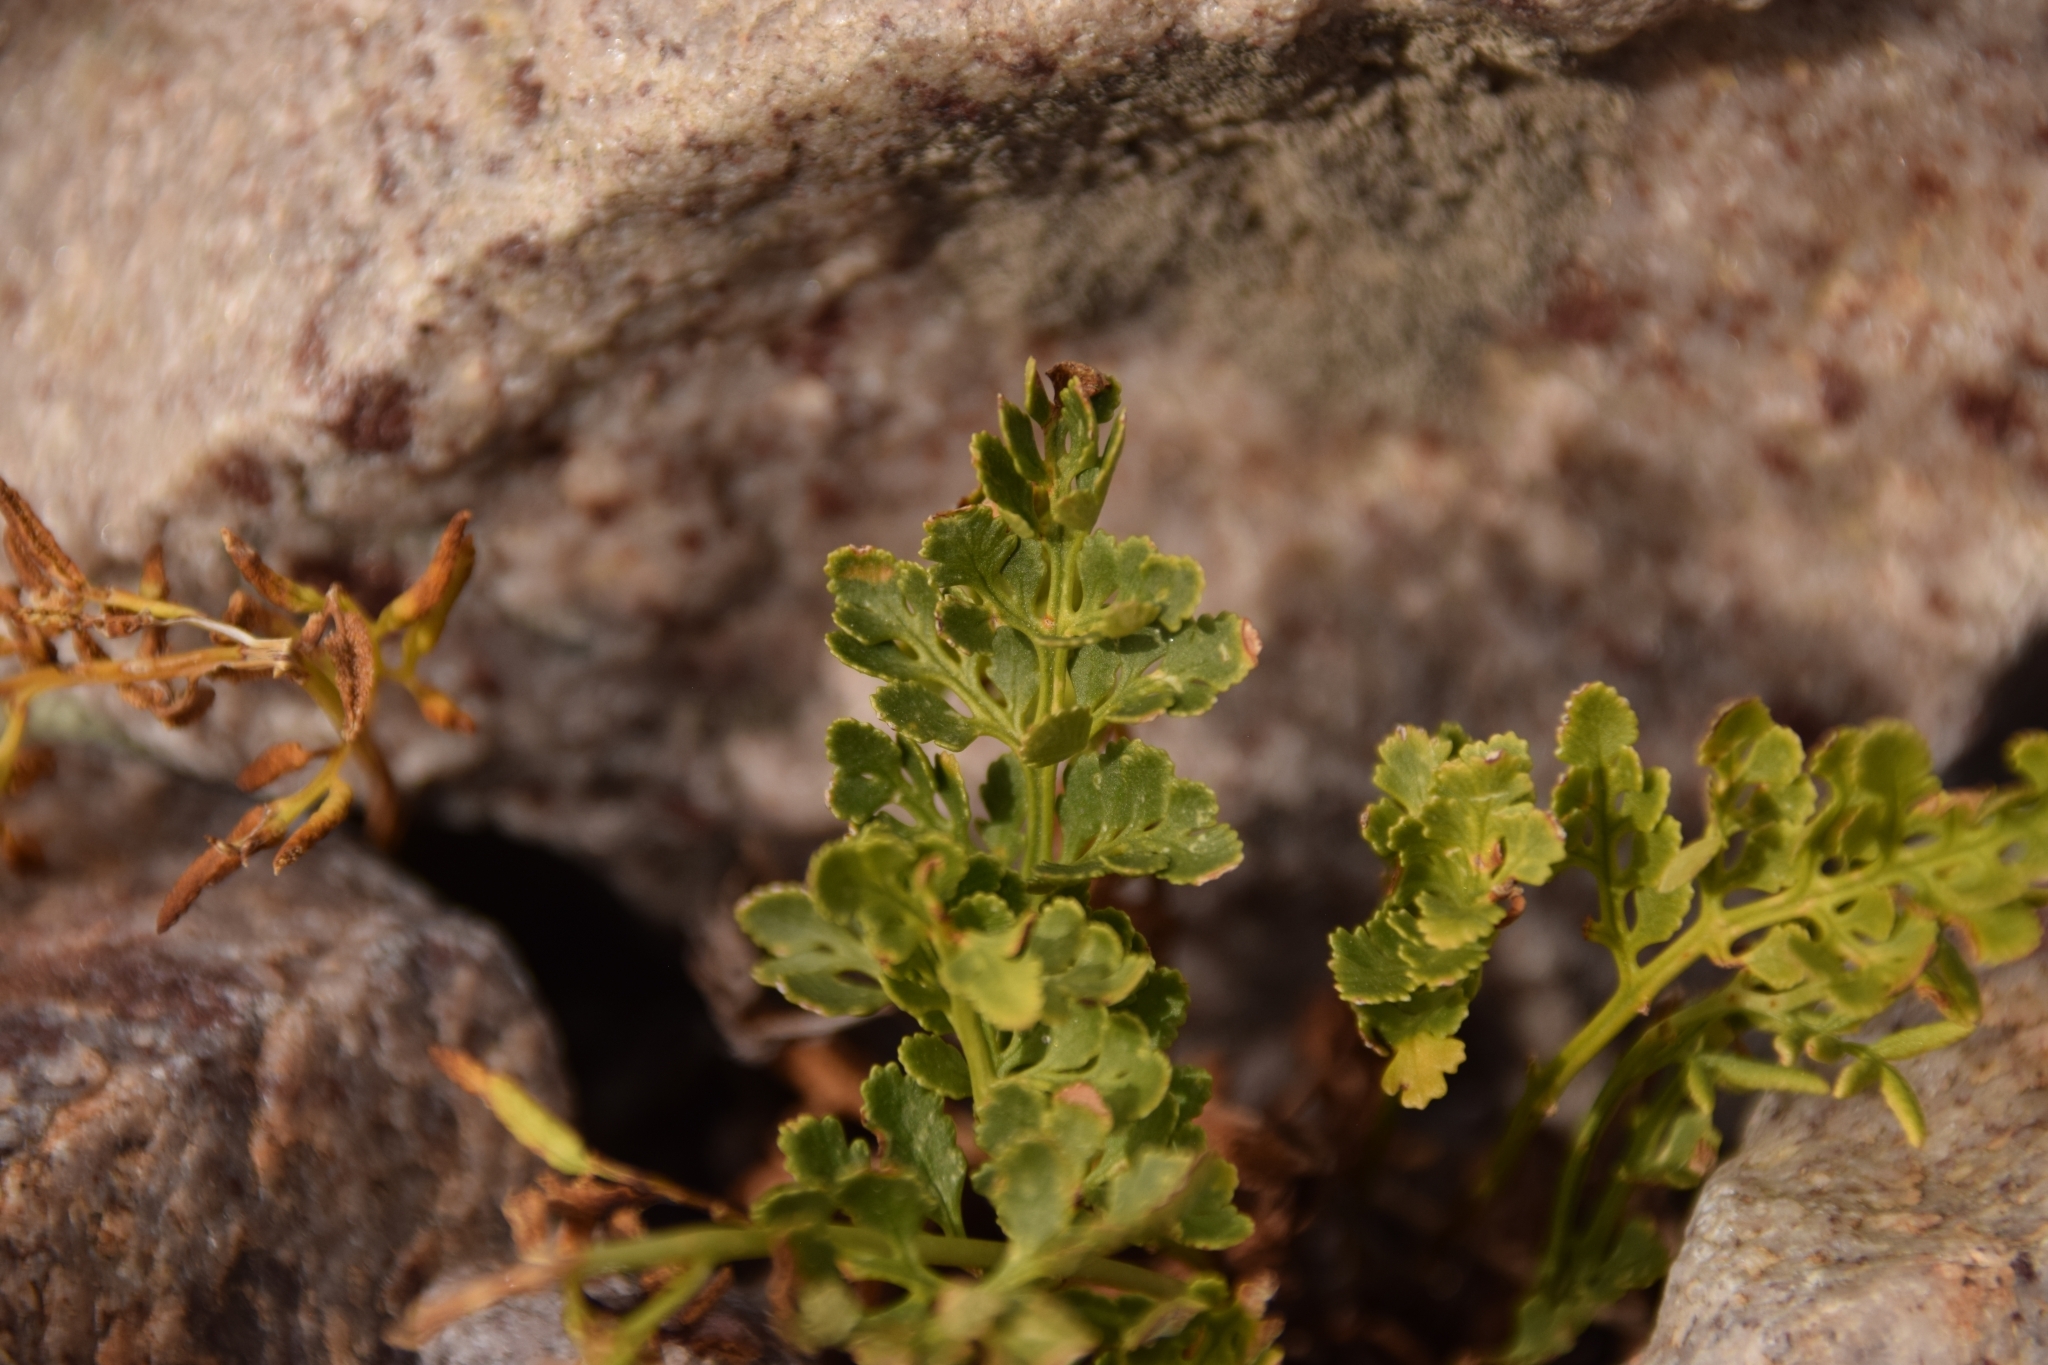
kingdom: Plantae
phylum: Tracheophyta
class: Polypodiopsida
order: Polypodiales
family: Pteridaceae
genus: Cryptogramma
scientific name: Cryptogramma acrostichoides
